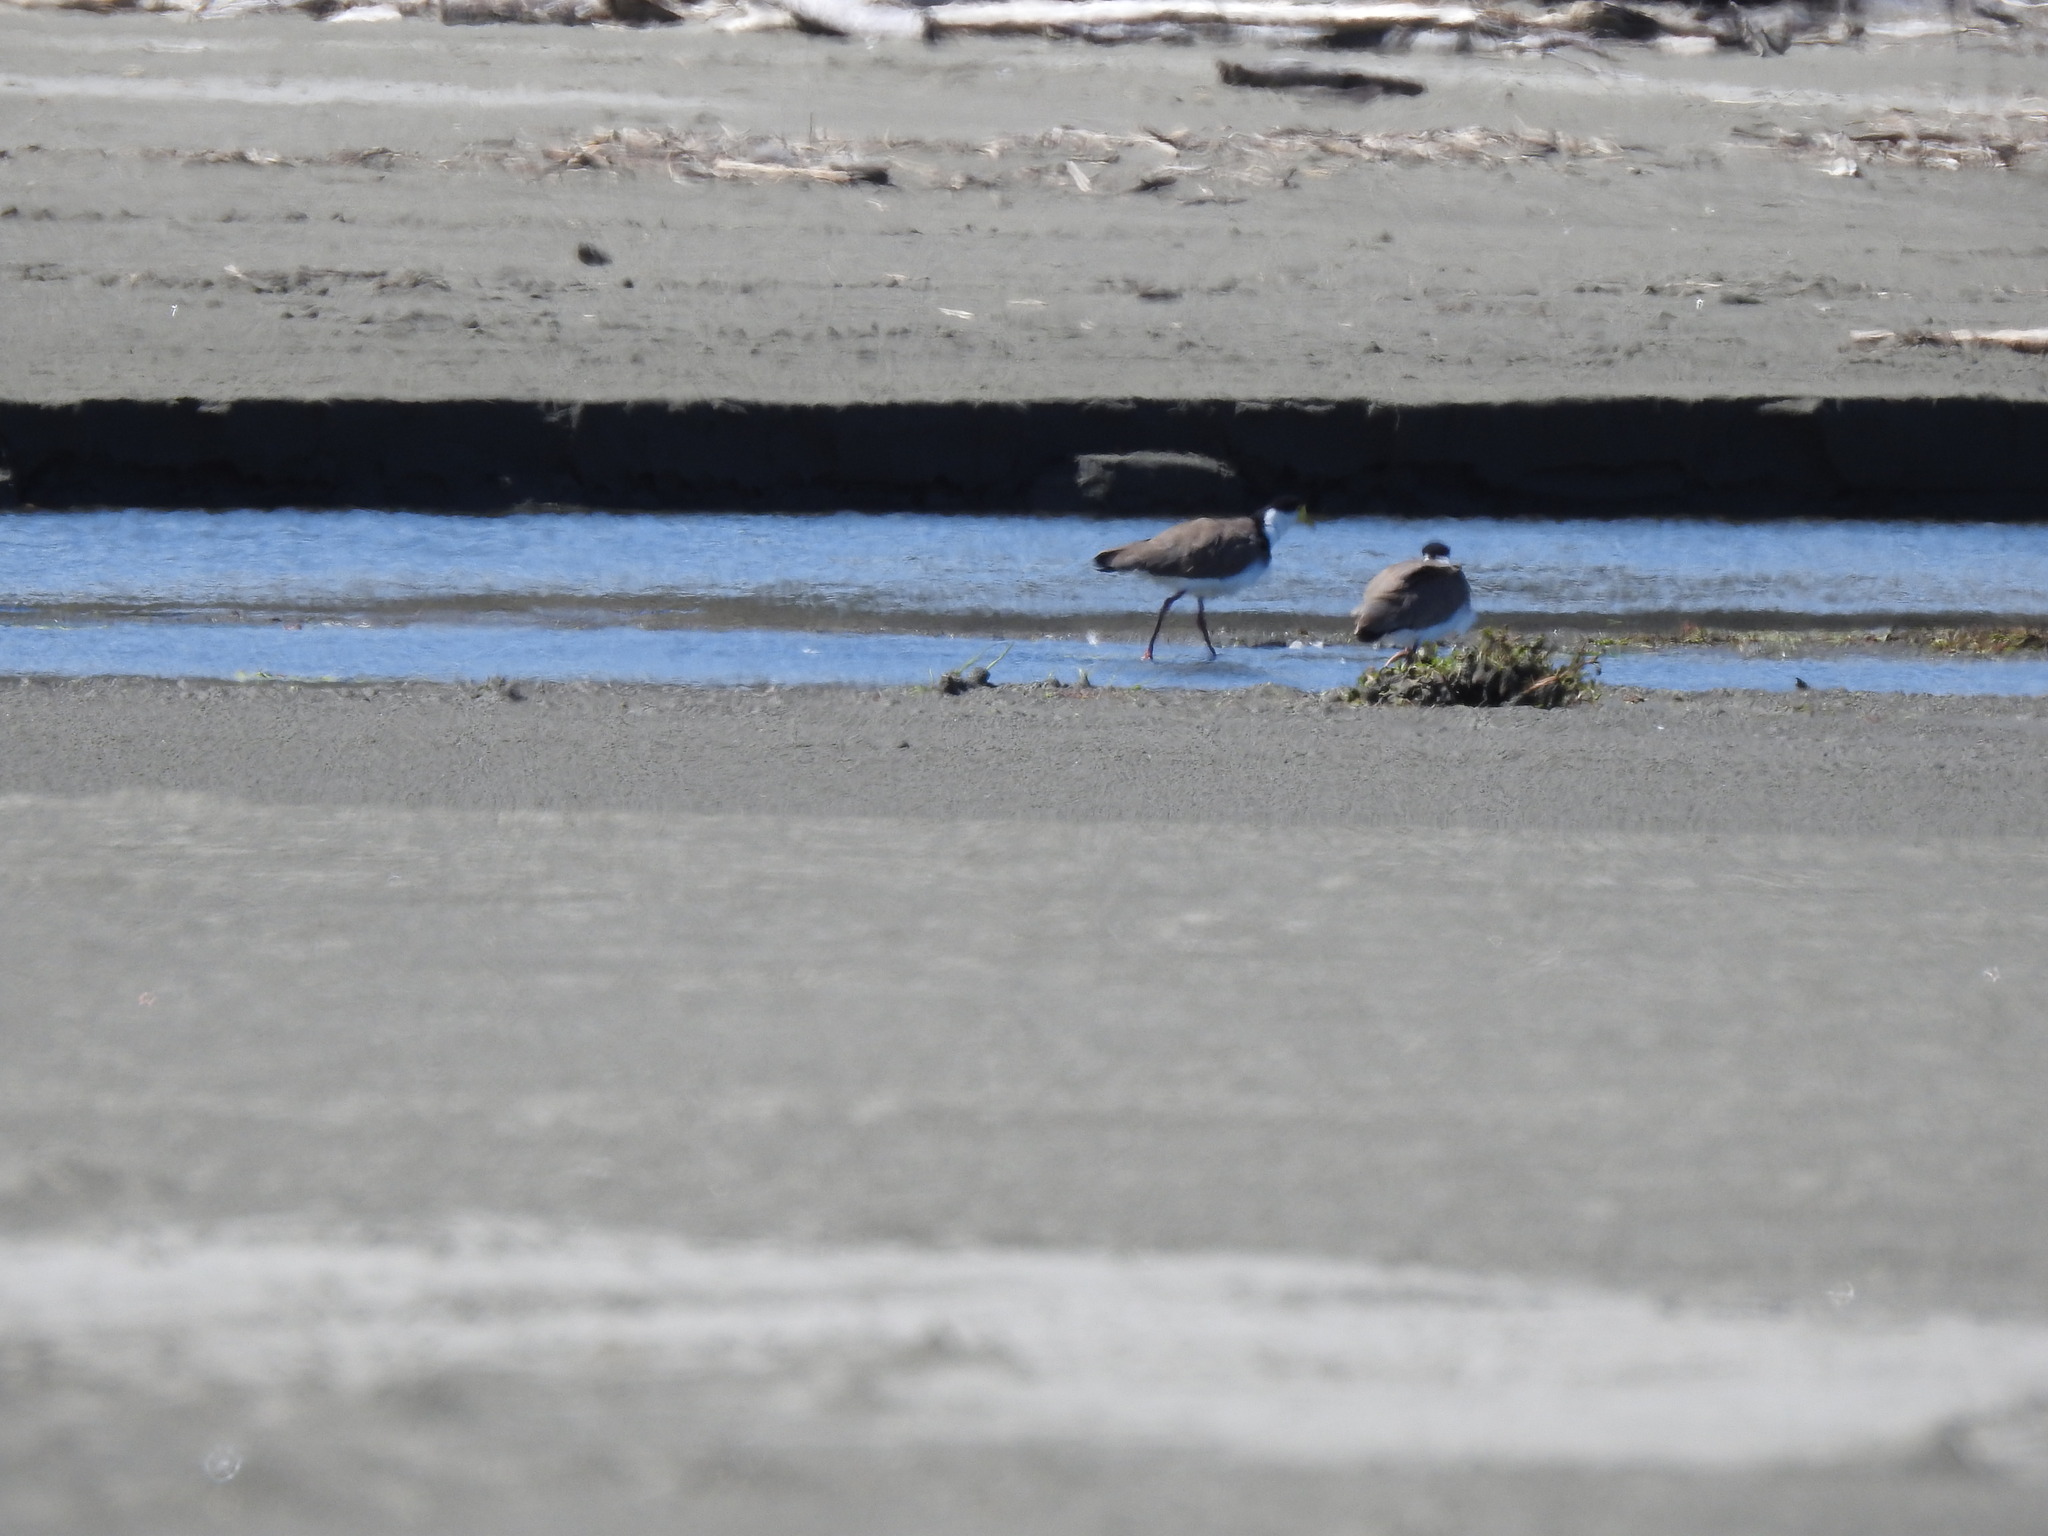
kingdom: Animalia
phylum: Chordata
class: Aves
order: Charadriiformes
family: Charadriidae
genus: Vanellus
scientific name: Vanellus miles
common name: Masked lapwing
